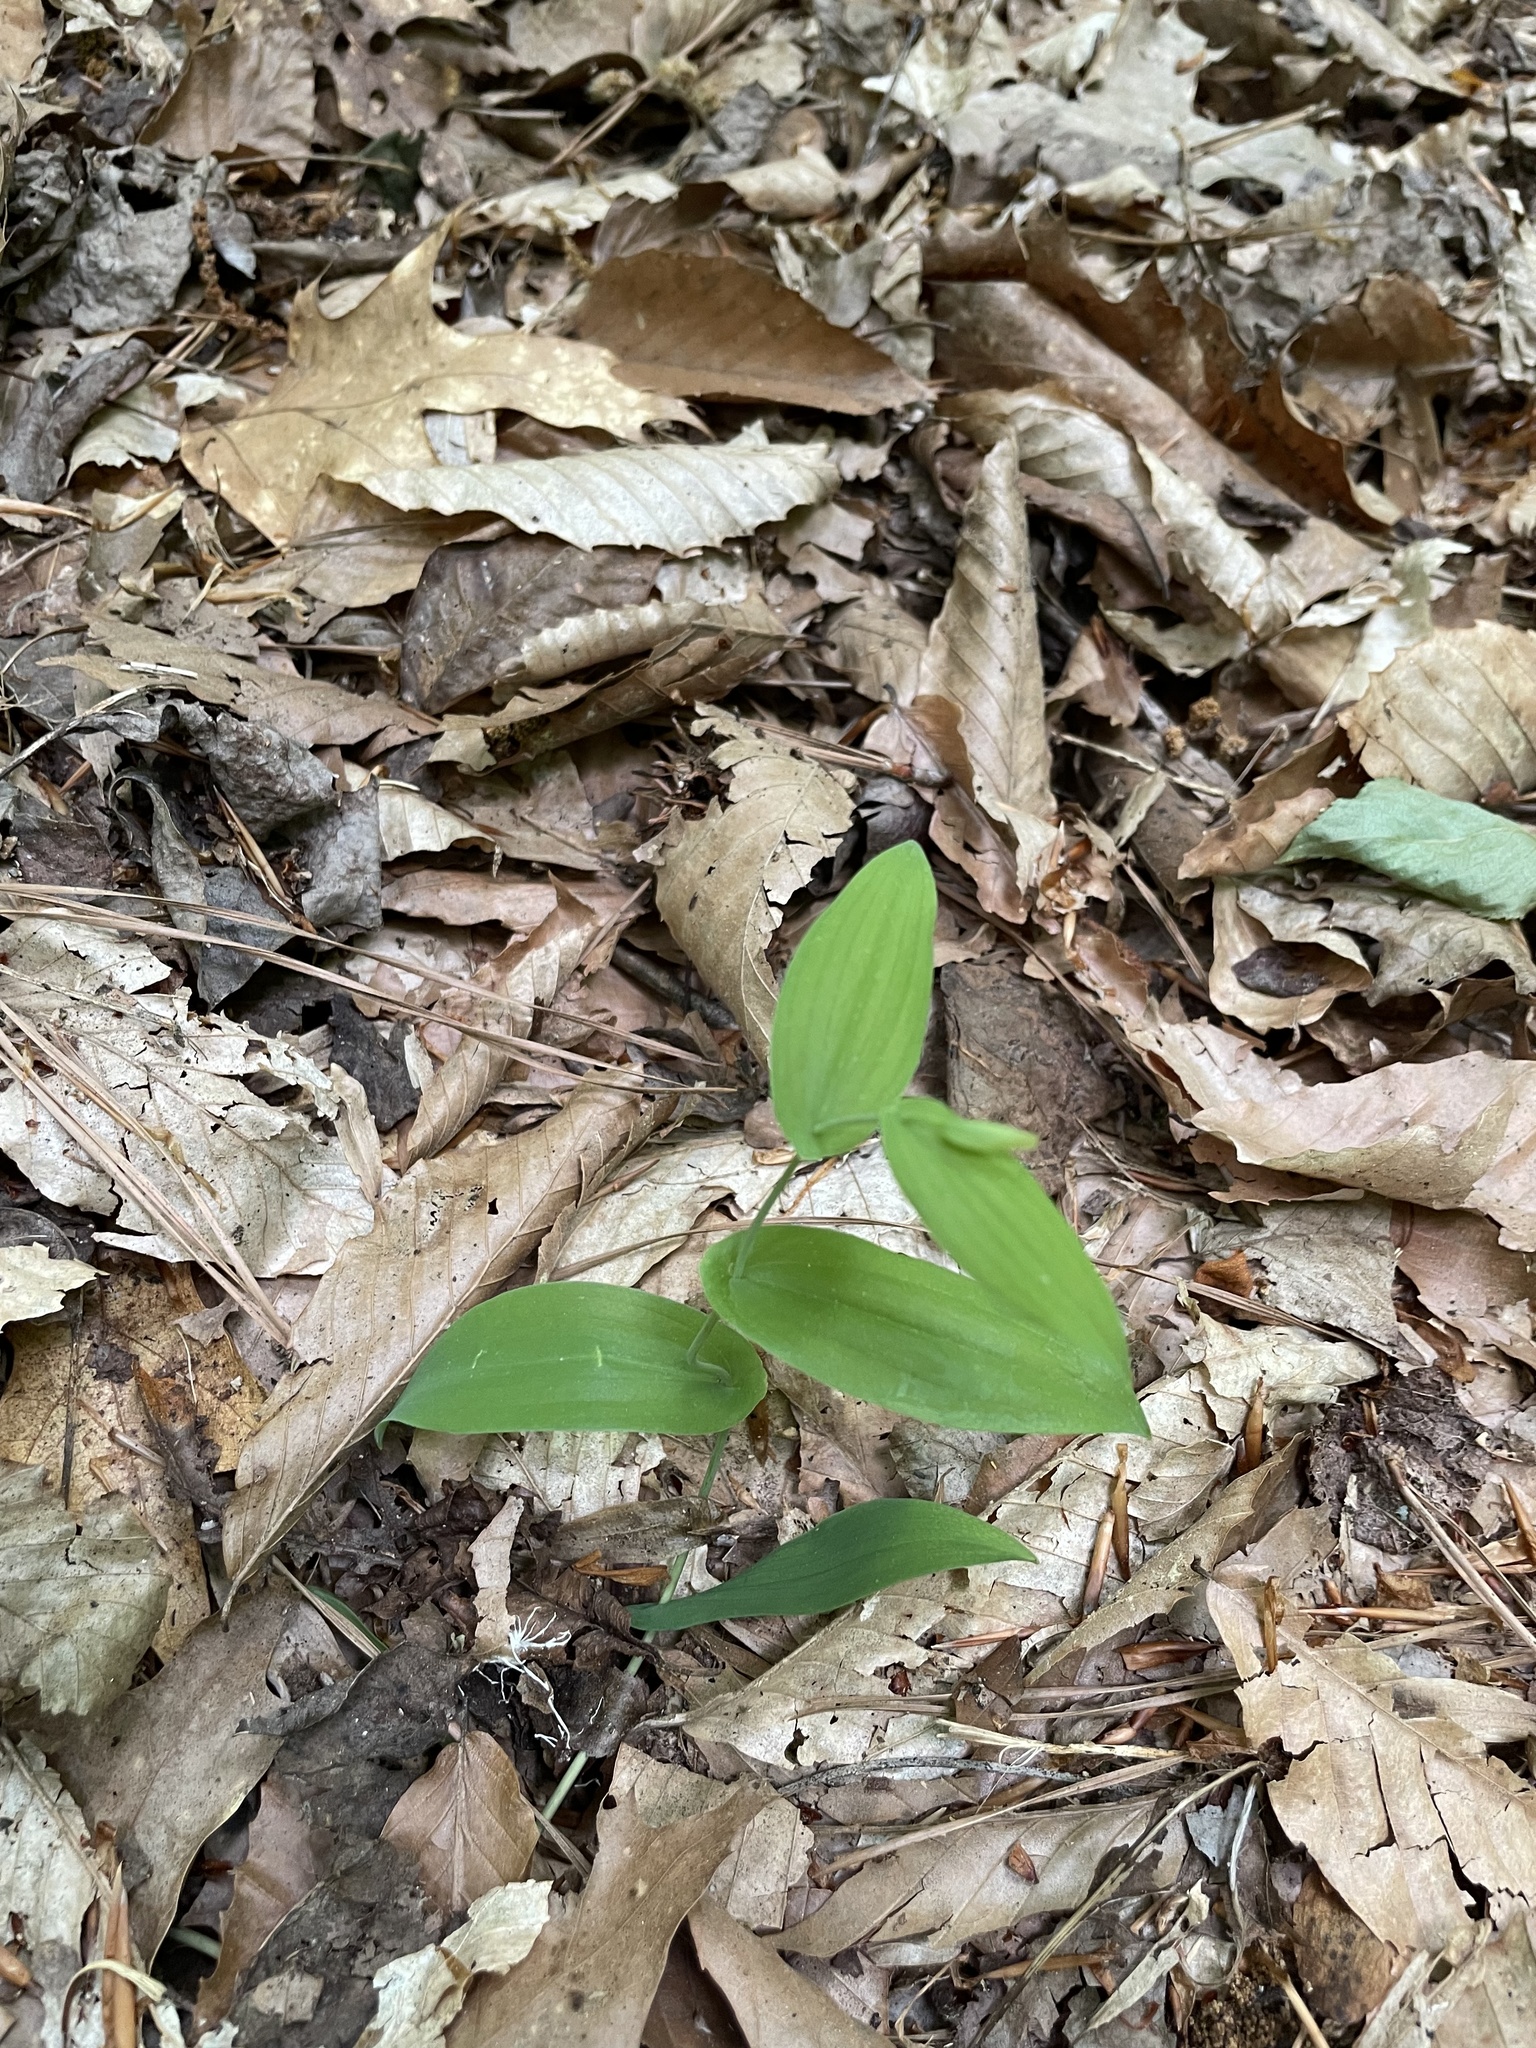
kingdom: Plantae
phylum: Tracheophyta
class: Liliopsida
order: Liliales
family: Colchicaceae
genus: Uvularia
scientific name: Uvularia perfoliata
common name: Perfoliate bellwort
